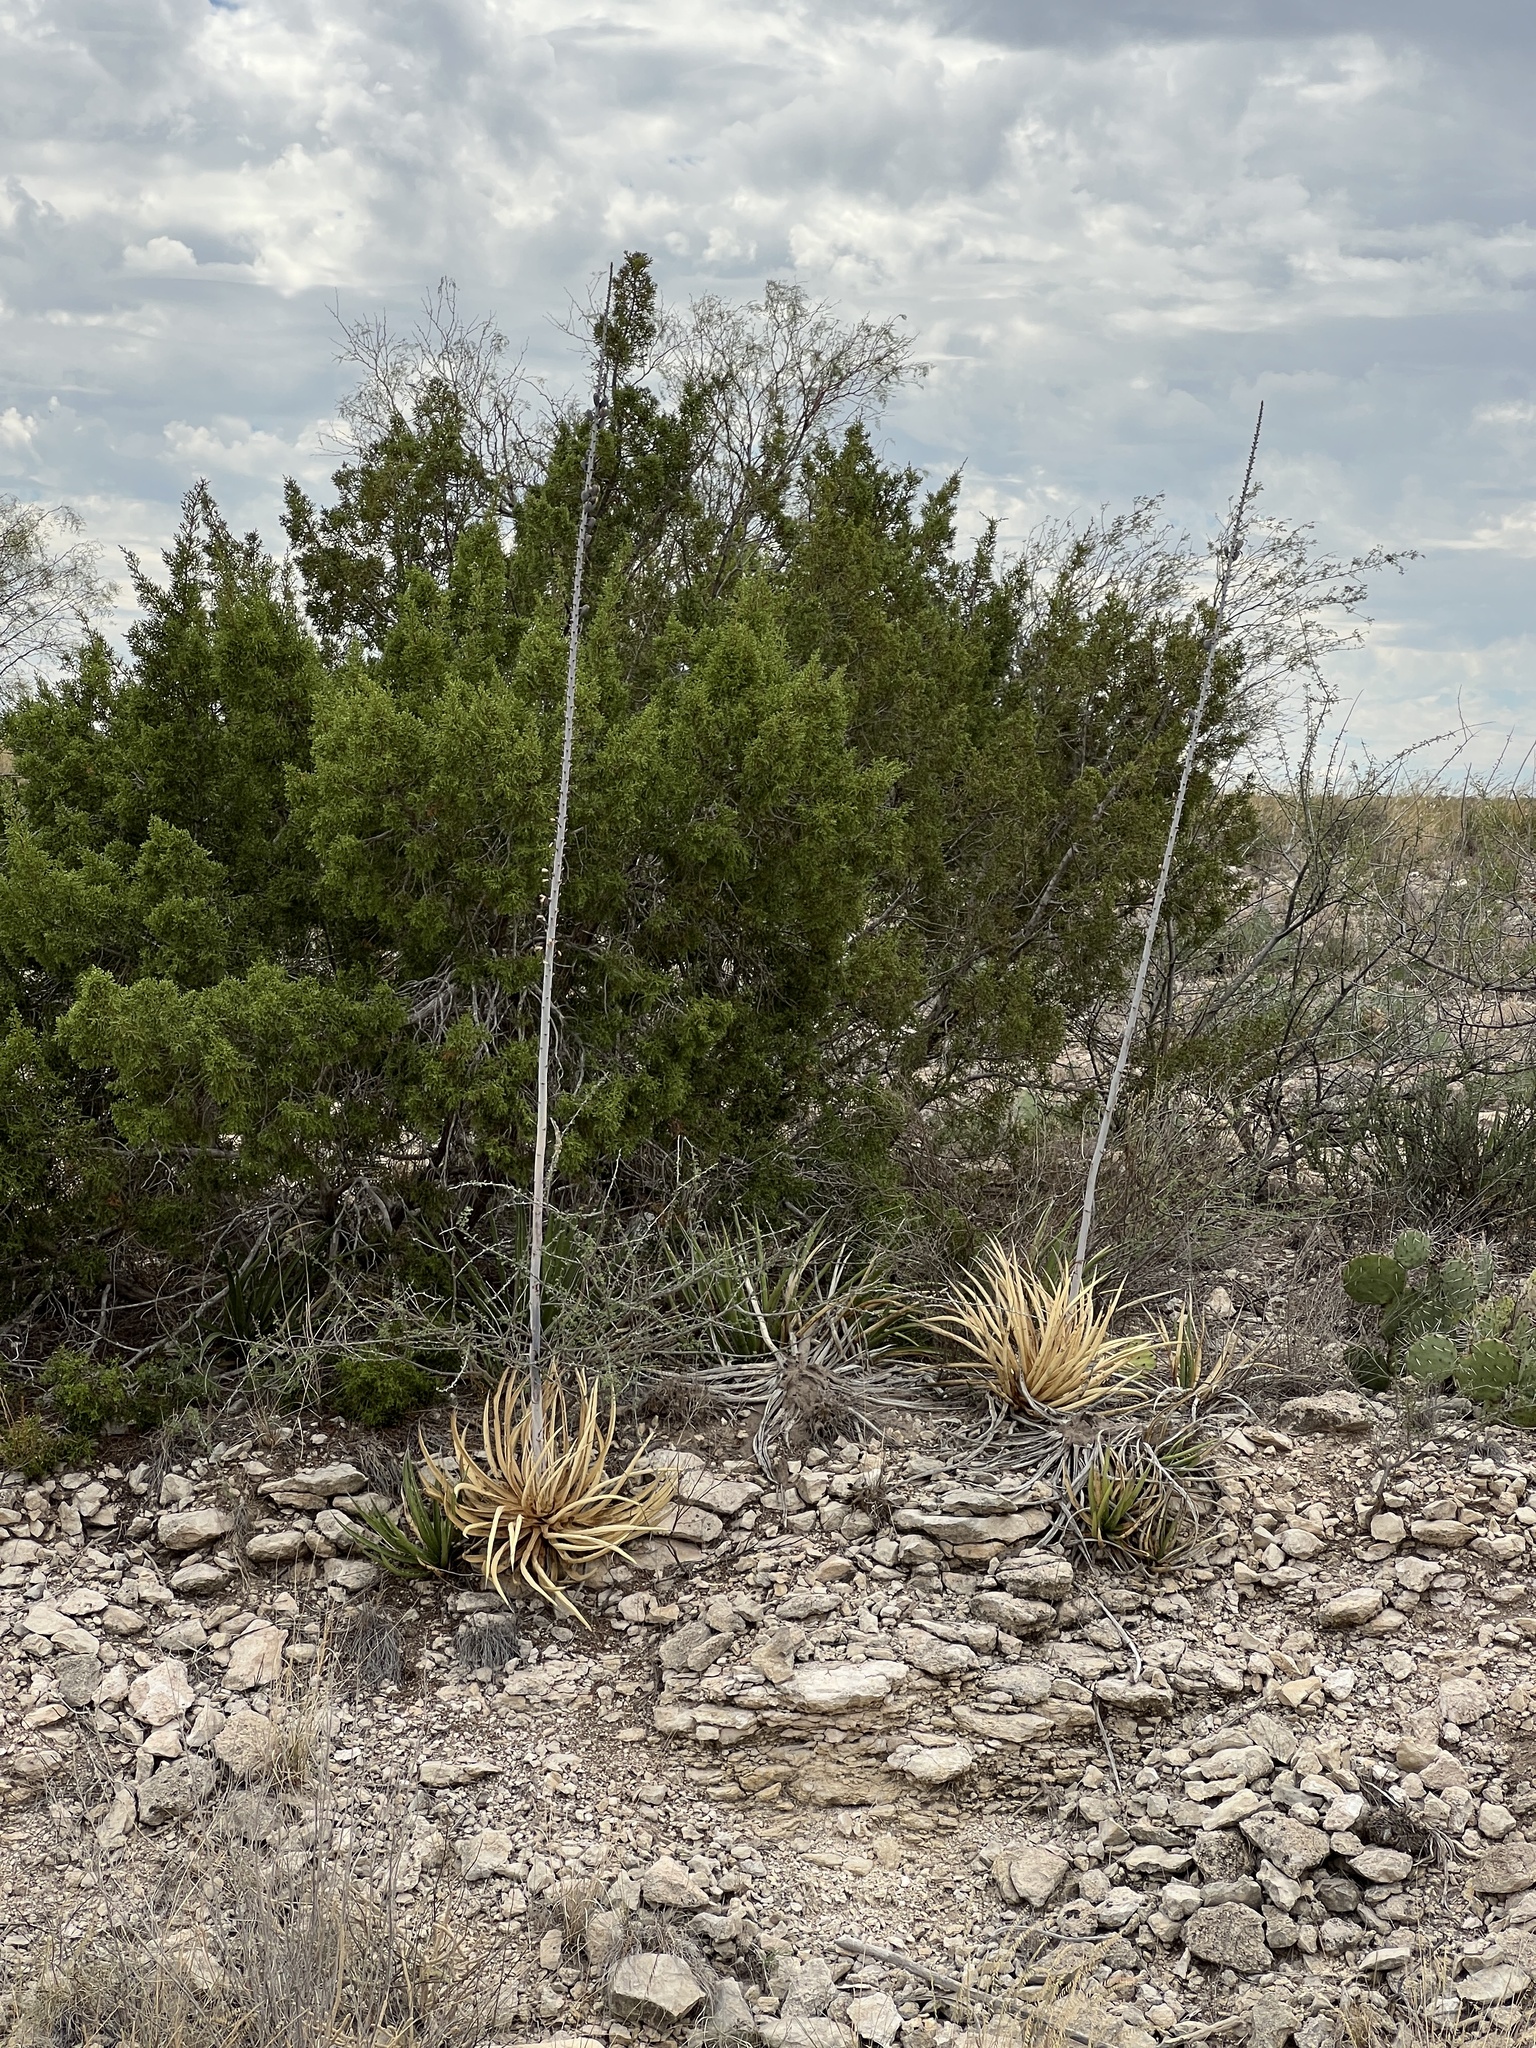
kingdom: Plantae
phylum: Tracheophyta
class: Liliopsida
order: Asparagales
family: Asparagaceae
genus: Agave
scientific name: Agave lechuguilla
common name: Lecheguilla agave
